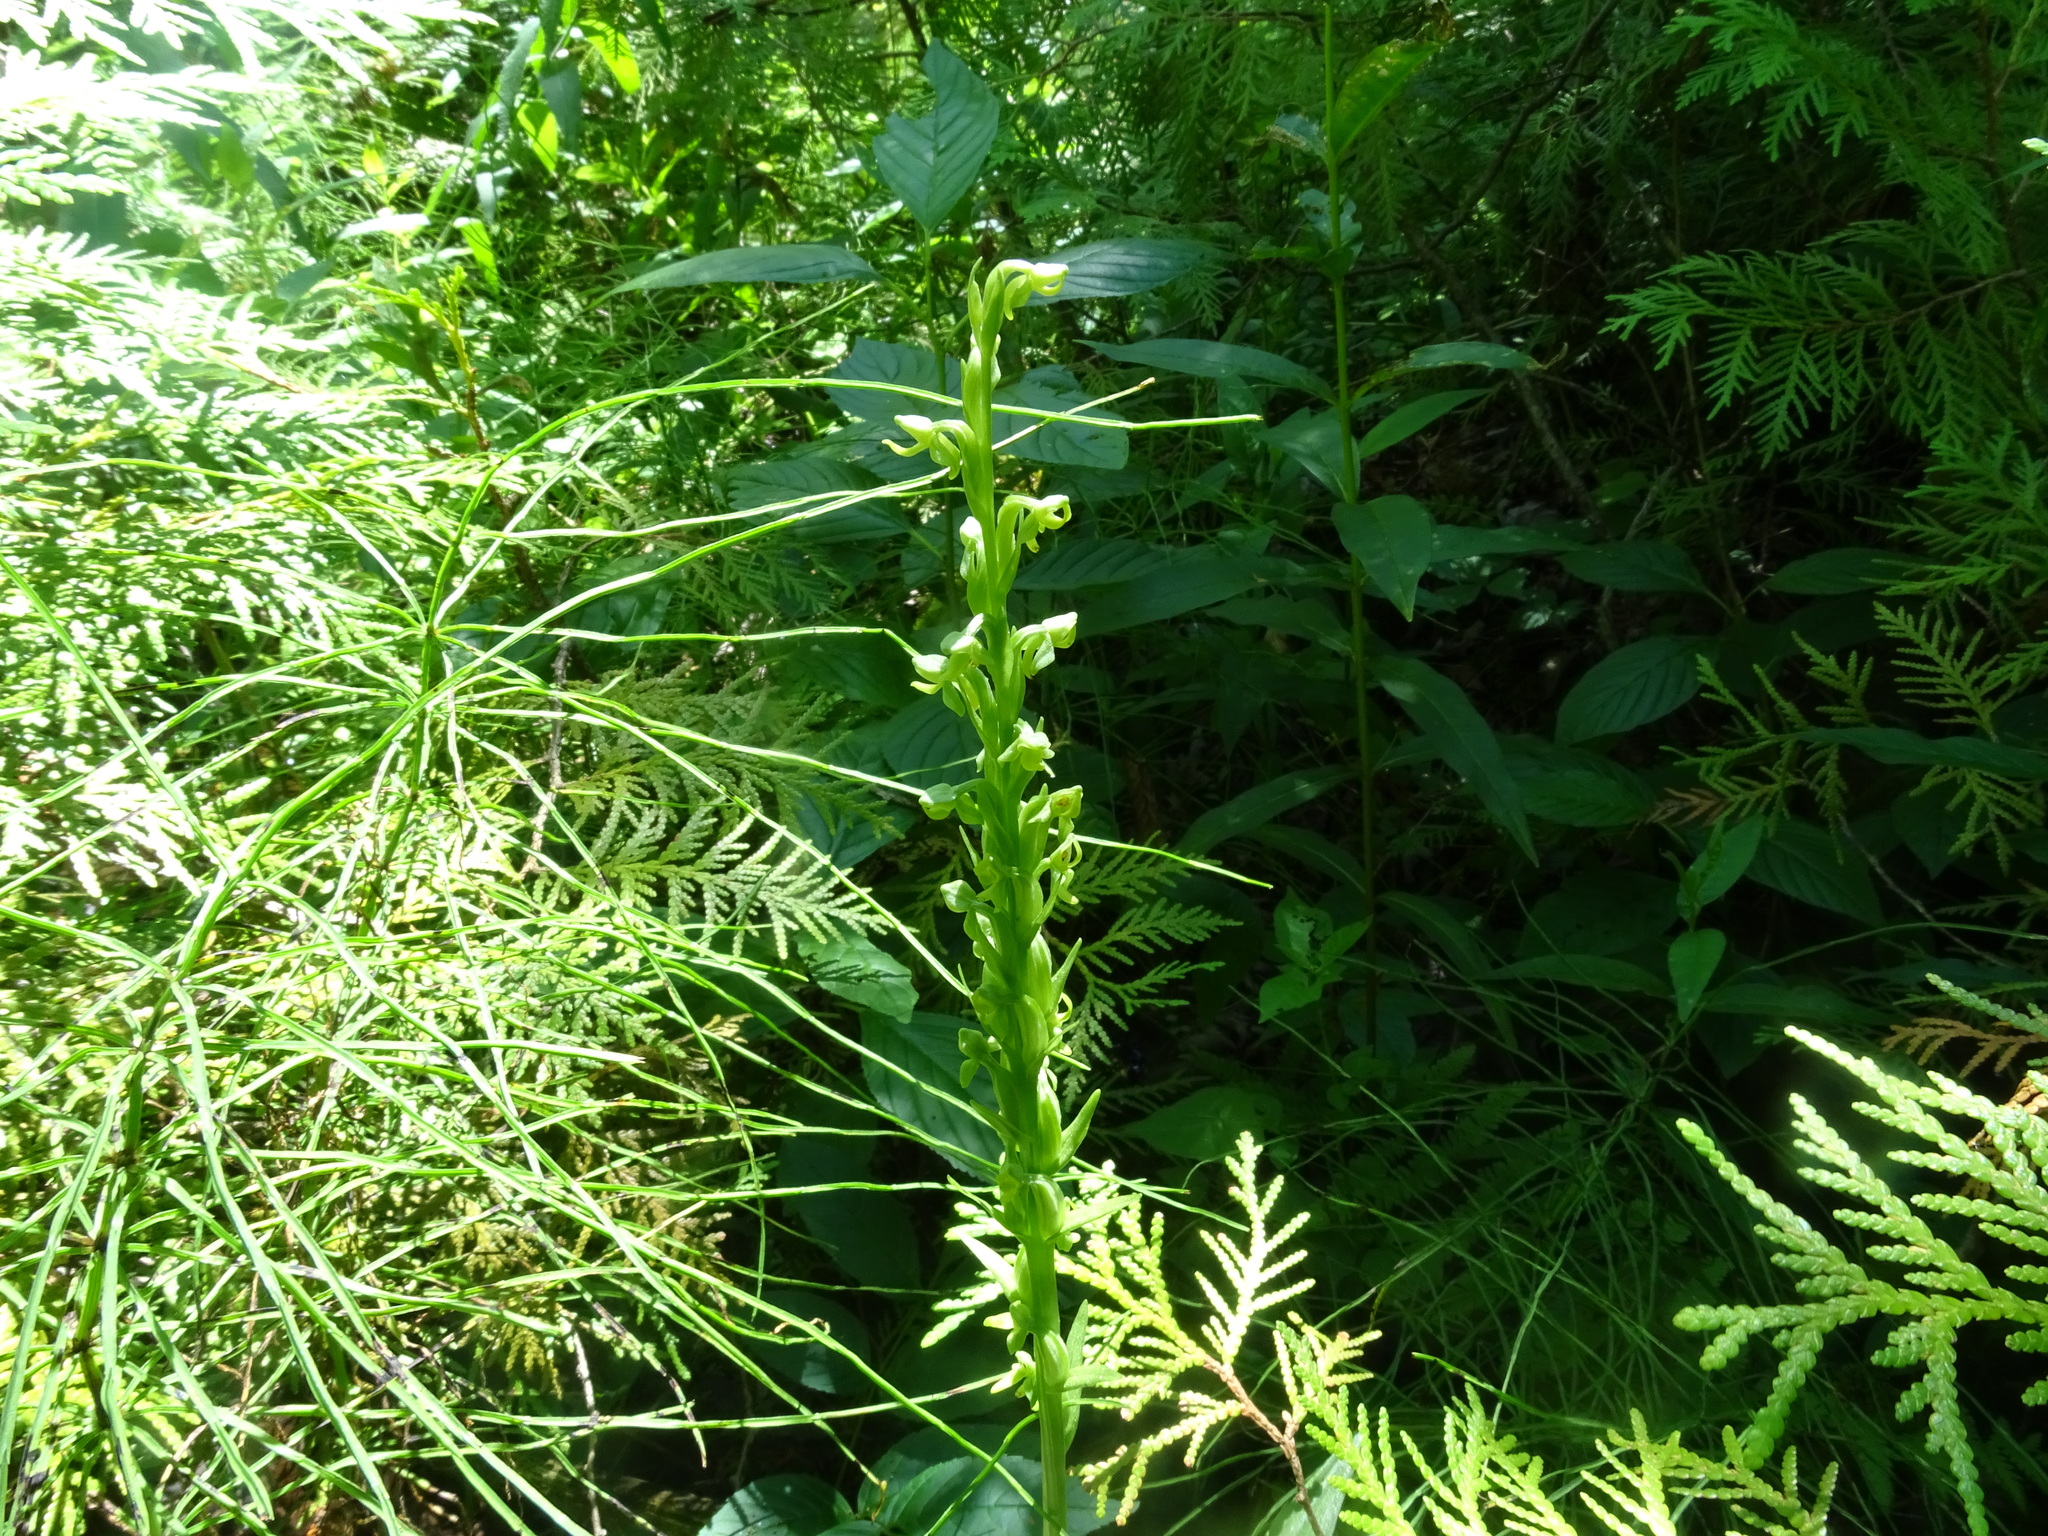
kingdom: Plantae
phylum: Tracheophyta
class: Liliopsida
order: Asparagales
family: Orchidaceae
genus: Platanthera
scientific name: Platanthera aquilonis
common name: Northern green orchid
